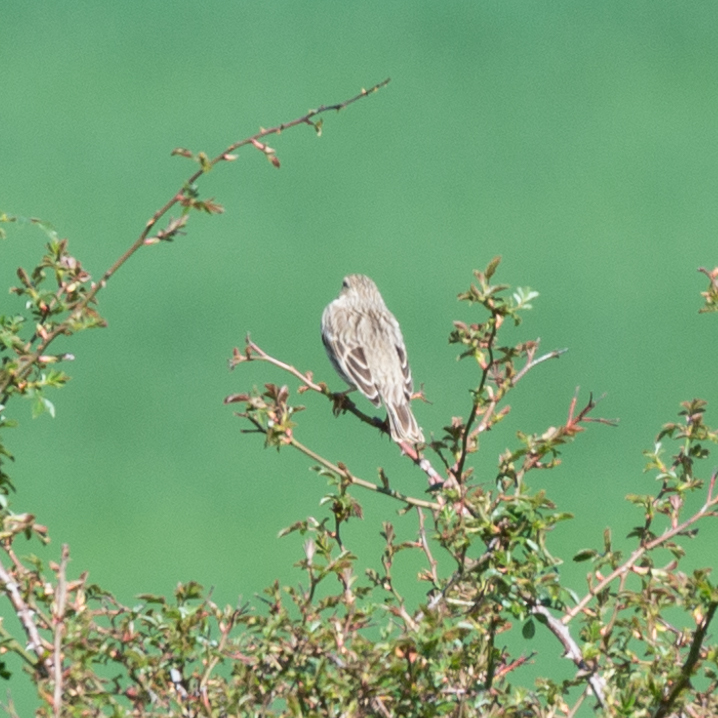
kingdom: Animalia
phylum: Chordata
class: Aves
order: Passeriformes
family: Emberizidae
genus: Emberiza
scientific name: Emberiza calandra
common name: Corn bunting
